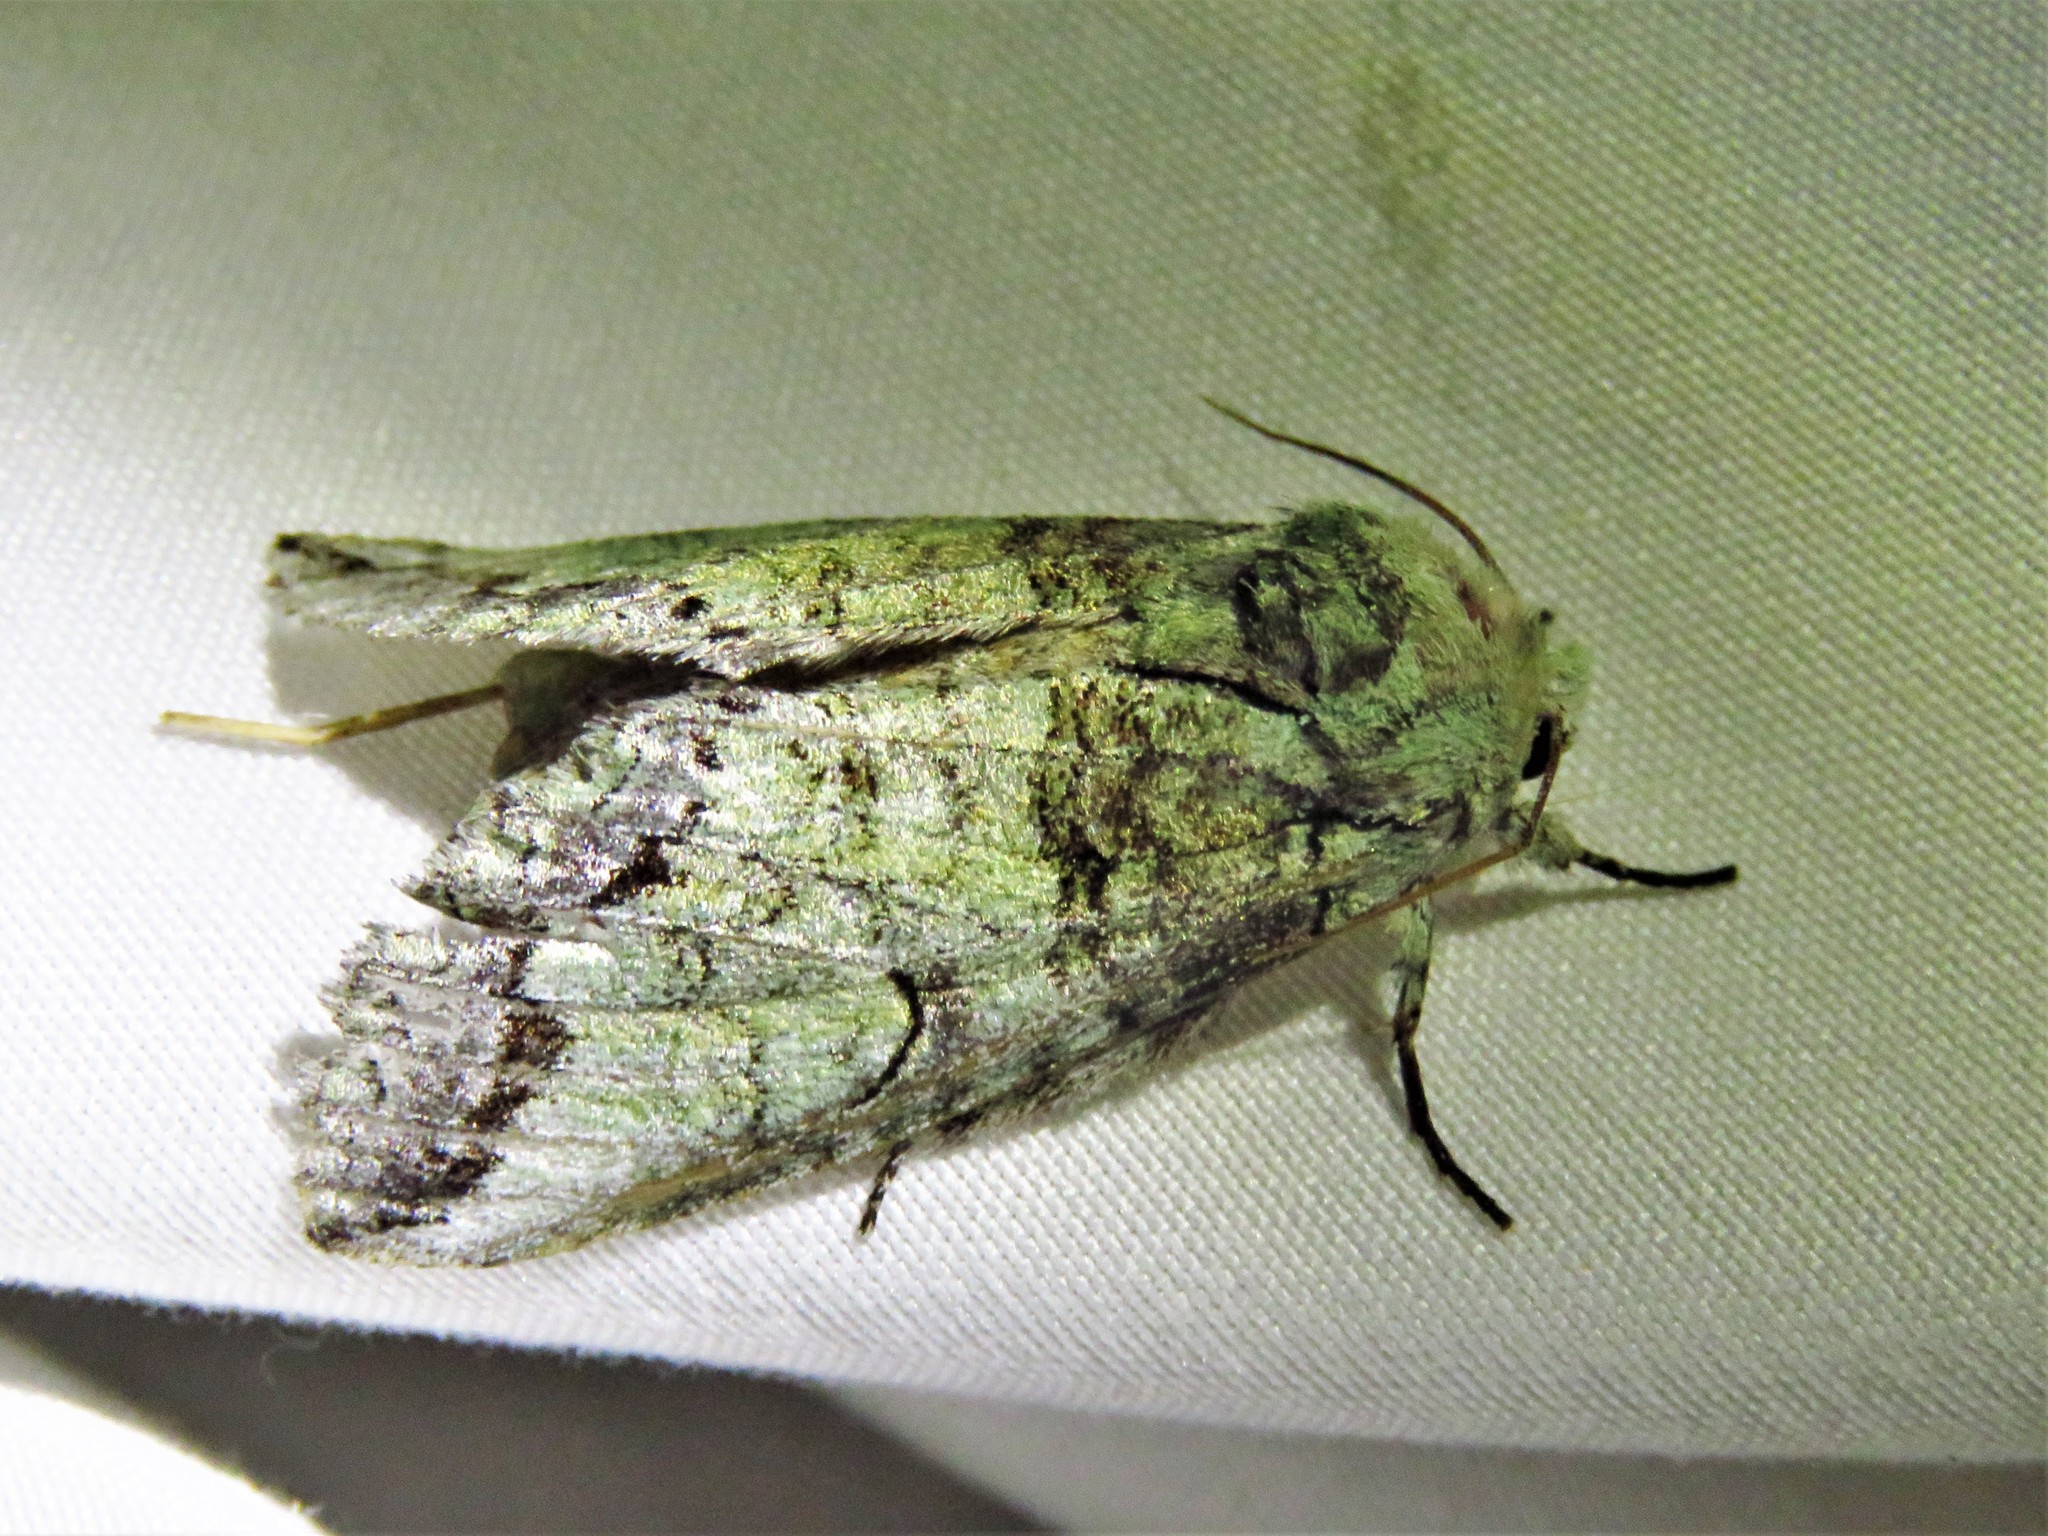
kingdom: Animalia
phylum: Arthropoda
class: Insecta
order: Lepidoptera
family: Notodontidae
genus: Litodonta
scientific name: Litodonta hydromeli
